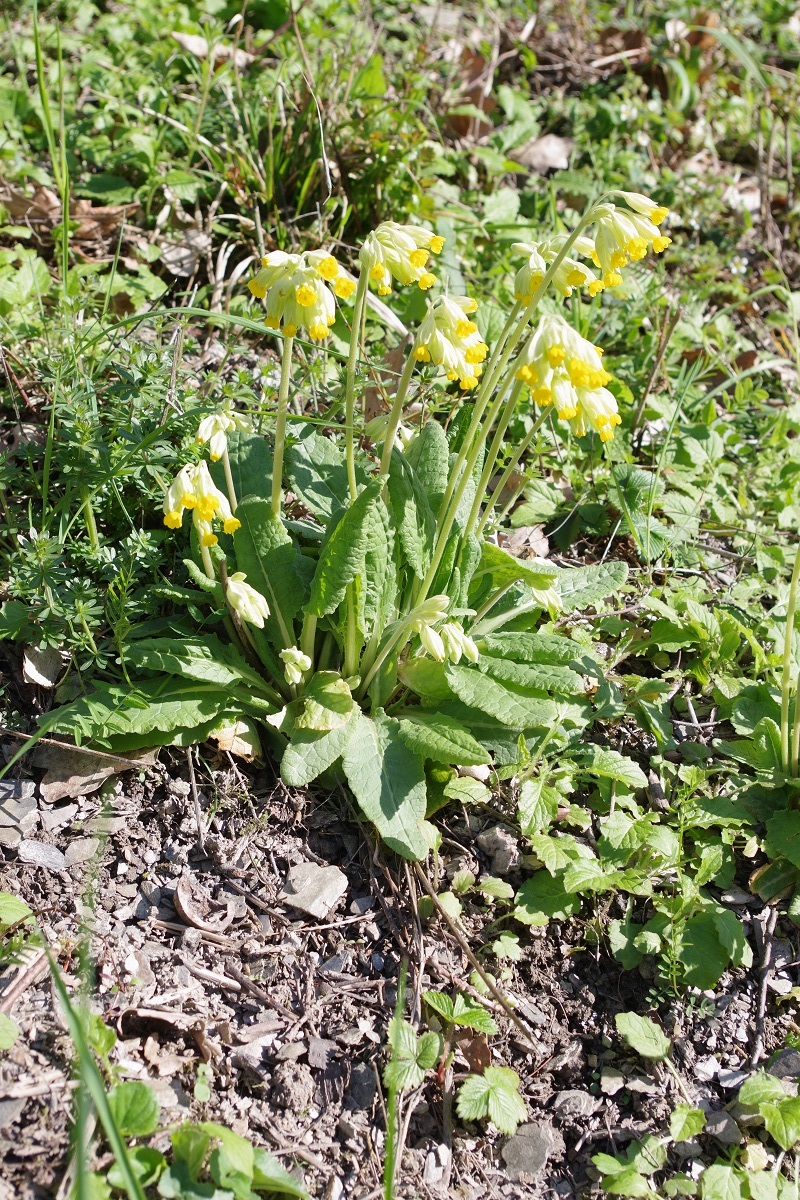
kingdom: Plantae
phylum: Tracheophyta
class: Magnoliopsida
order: Ericales
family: Primulaceae
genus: Primula
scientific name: Primula veris
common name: Cowslip
